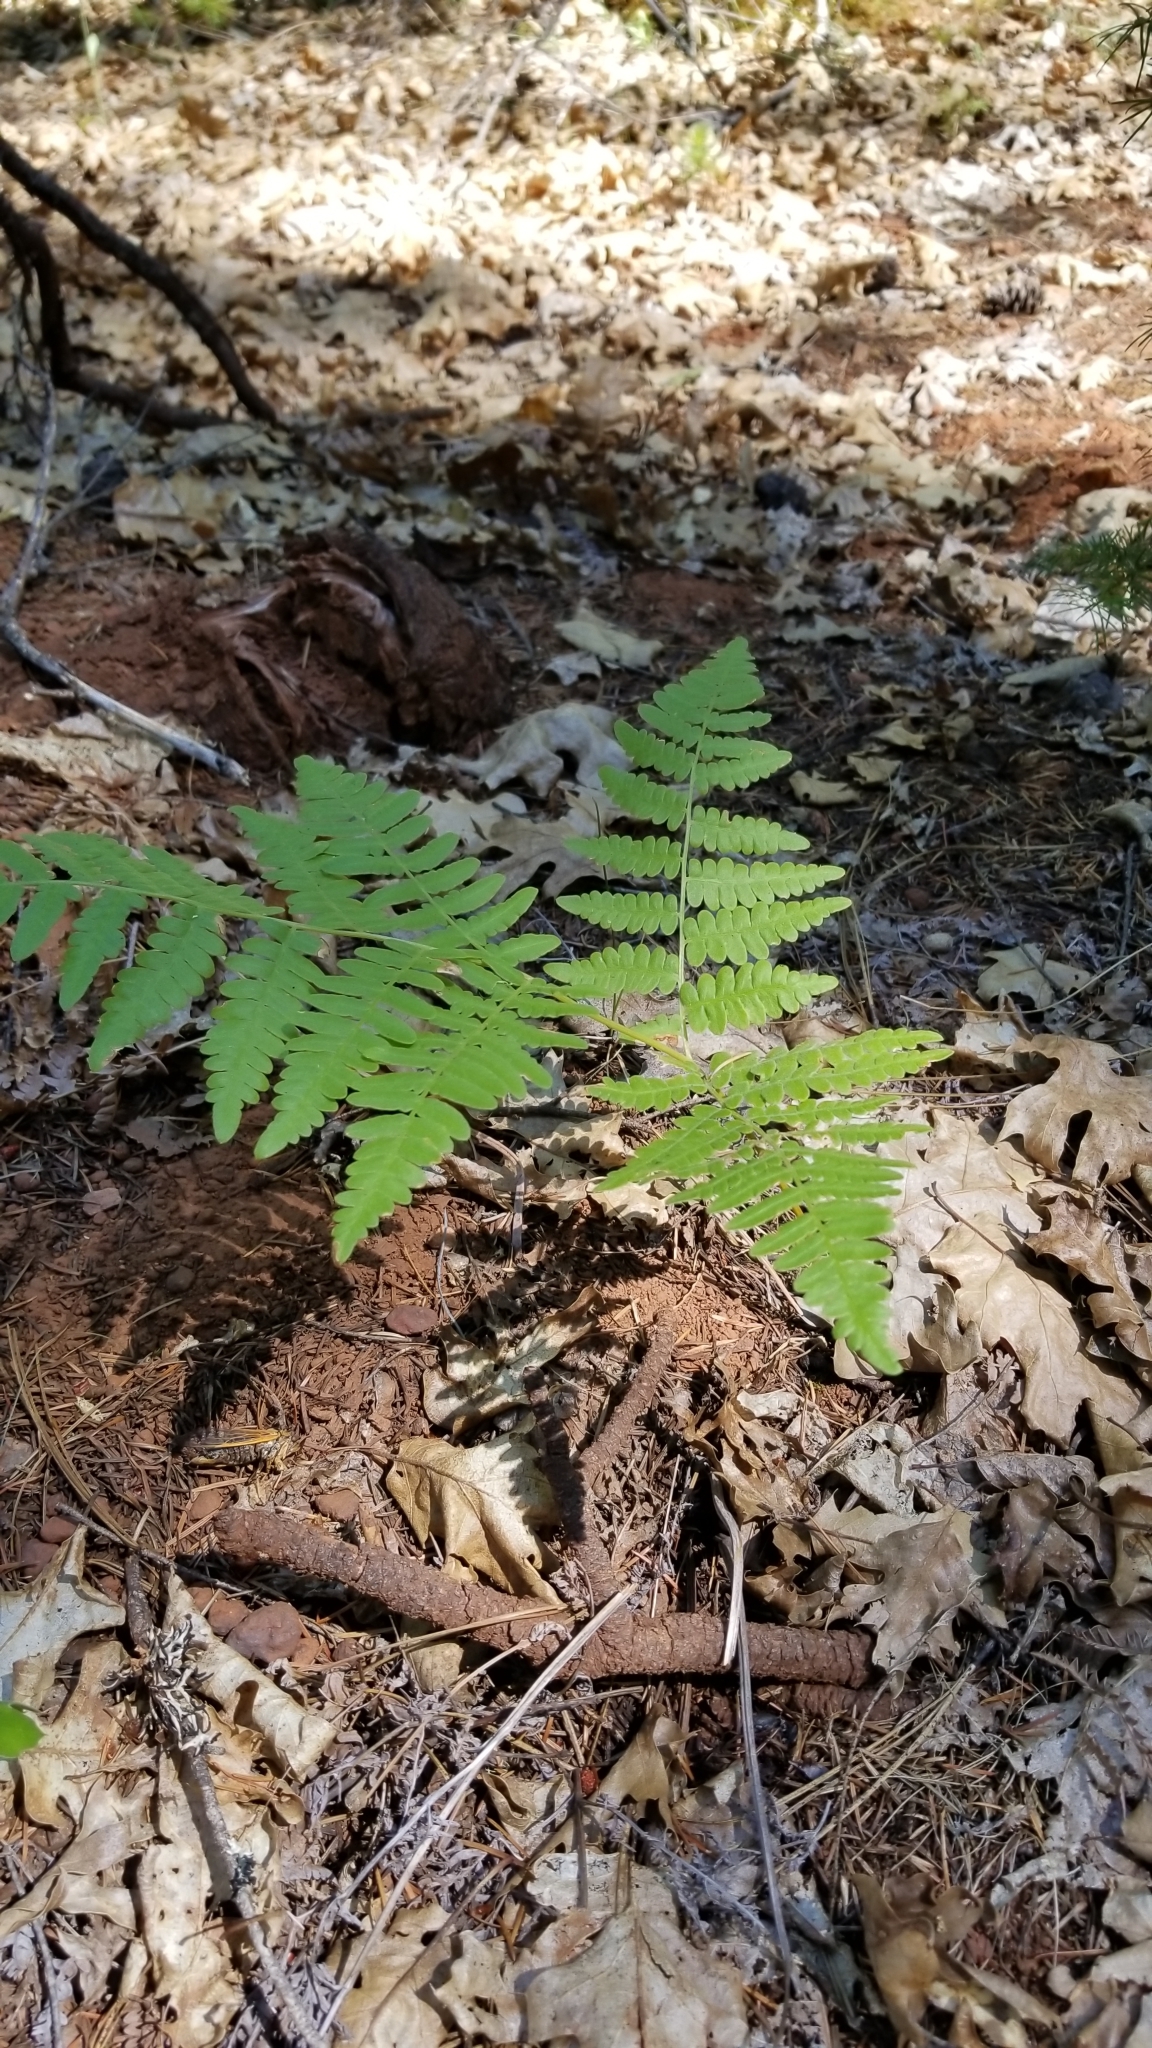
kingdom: Plantae
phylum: Tracheophyta
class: Polypodiopsida
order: Polypodiales
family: Dennstaedtiaceae
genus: Pteridium
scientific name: Pteridium aquilinum
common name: Bracken
